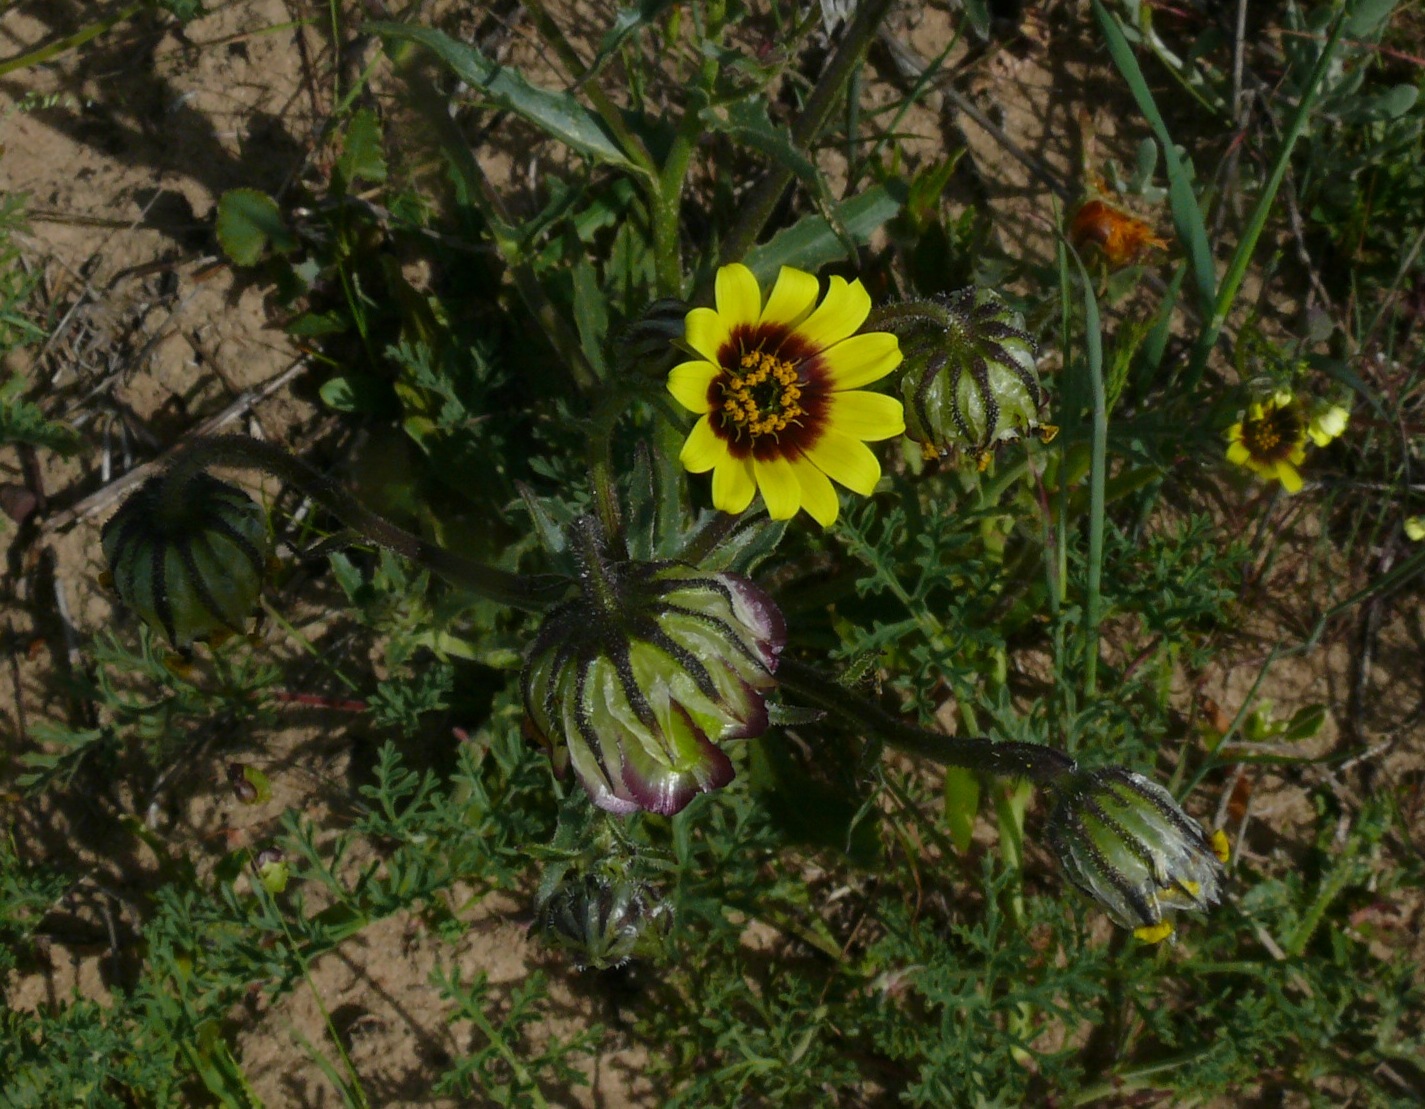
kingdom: Plantae
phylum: Tracheophyta
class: Magnoliopsida
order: Asterales
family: Asteraceae
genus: Osteospermum
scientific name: Osteospermum monstrosum
